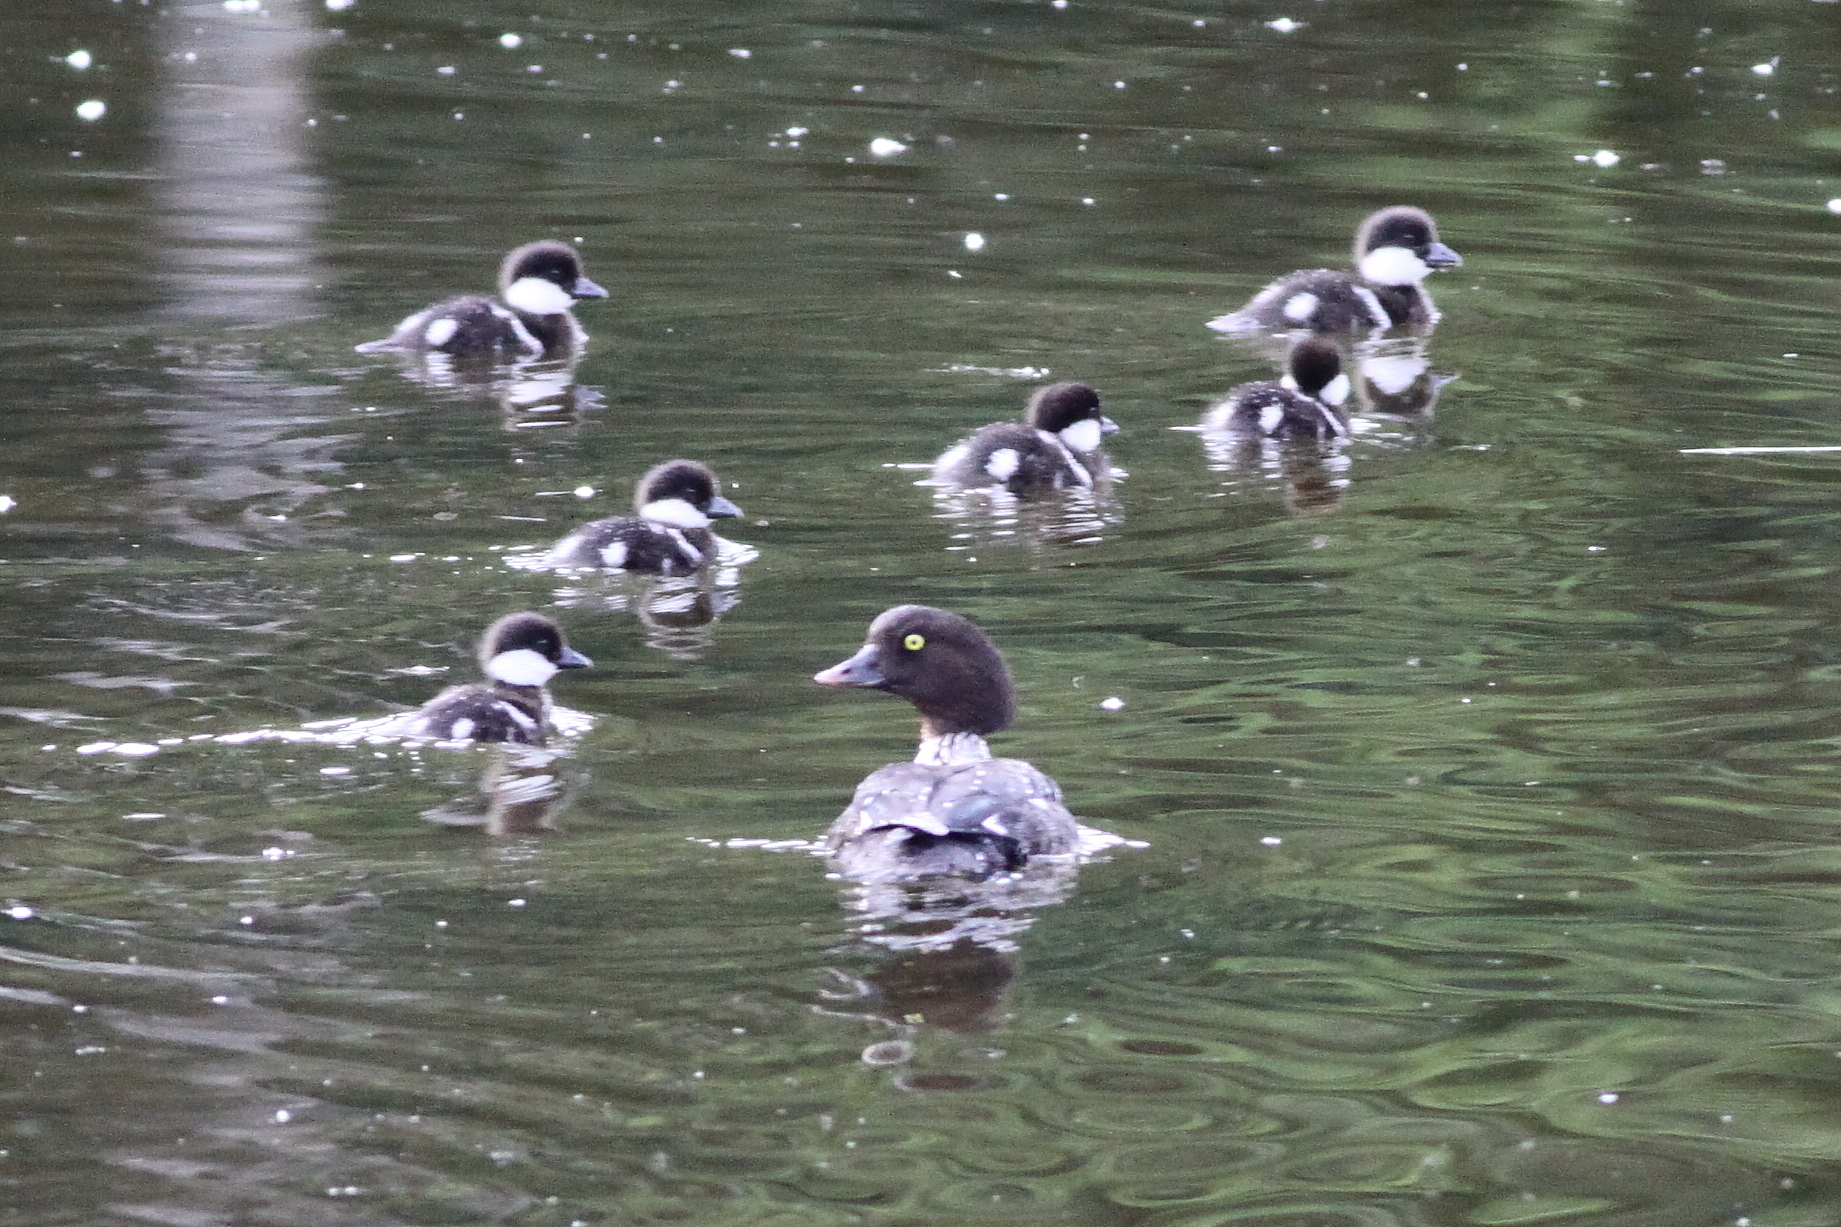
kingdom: Animalia
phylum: Chordata
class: Aves
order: Anseriformes
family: Anatidae
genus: Bucephala
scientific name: Bucephala islandica
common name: Barrow's goldeneye
